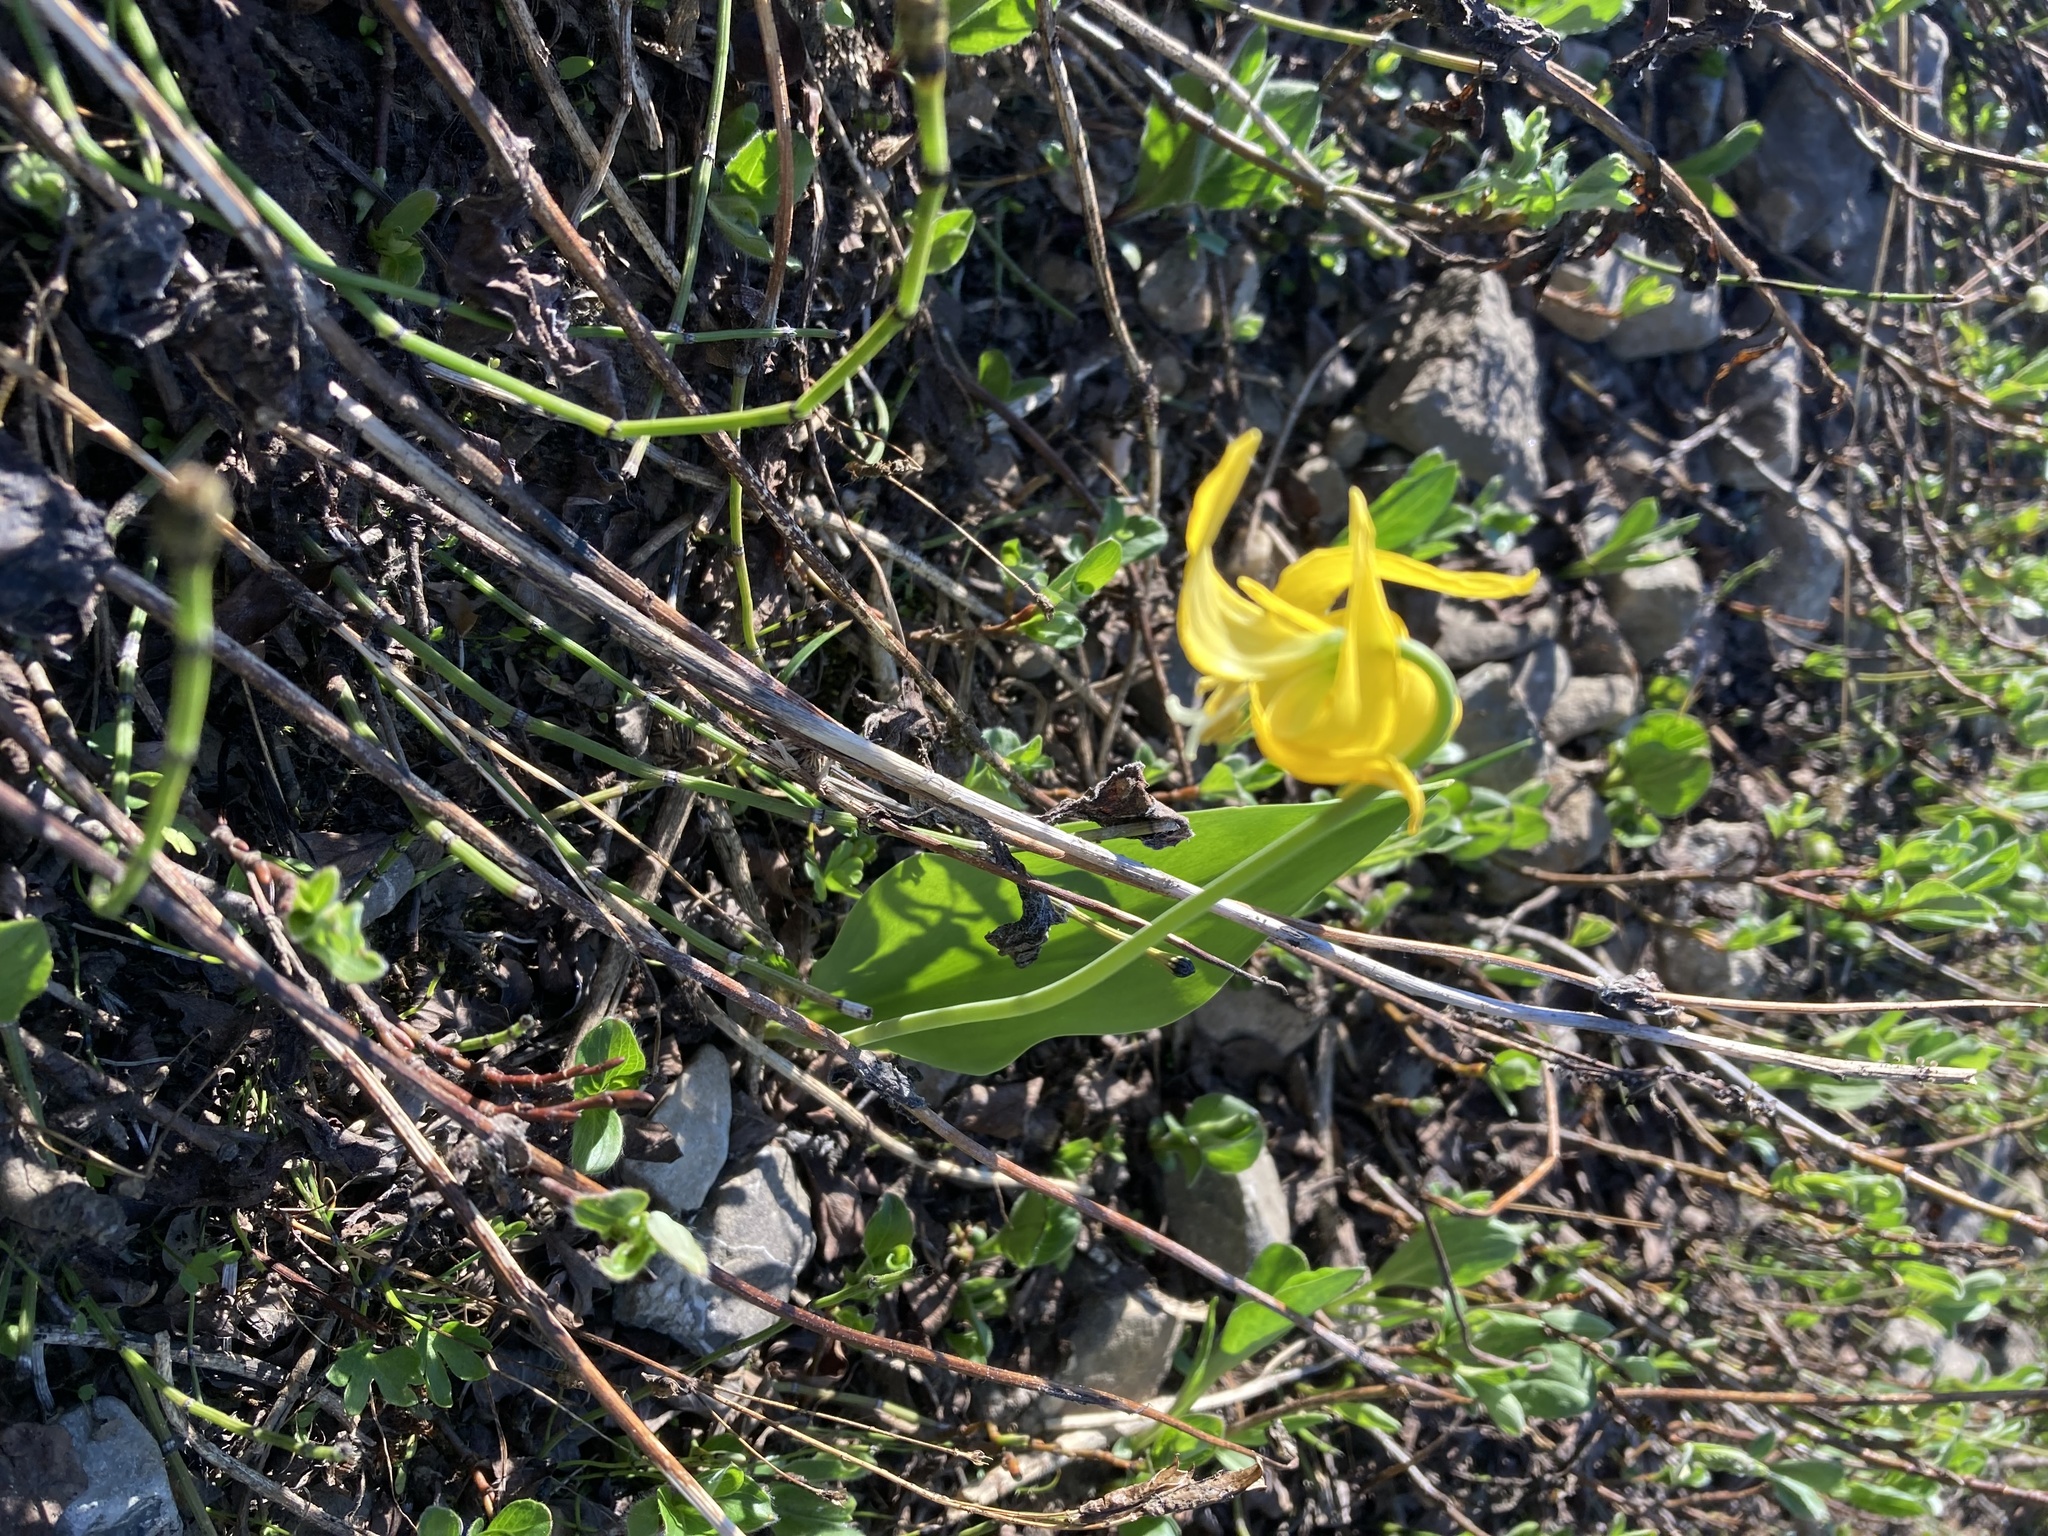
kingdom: Plantae
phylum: Tracheophyta
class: Liliopsida
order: Liliales
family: Liliaceae
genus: Erythronium
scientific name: Erythronium grandiflorum
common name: Avalanche-lily
